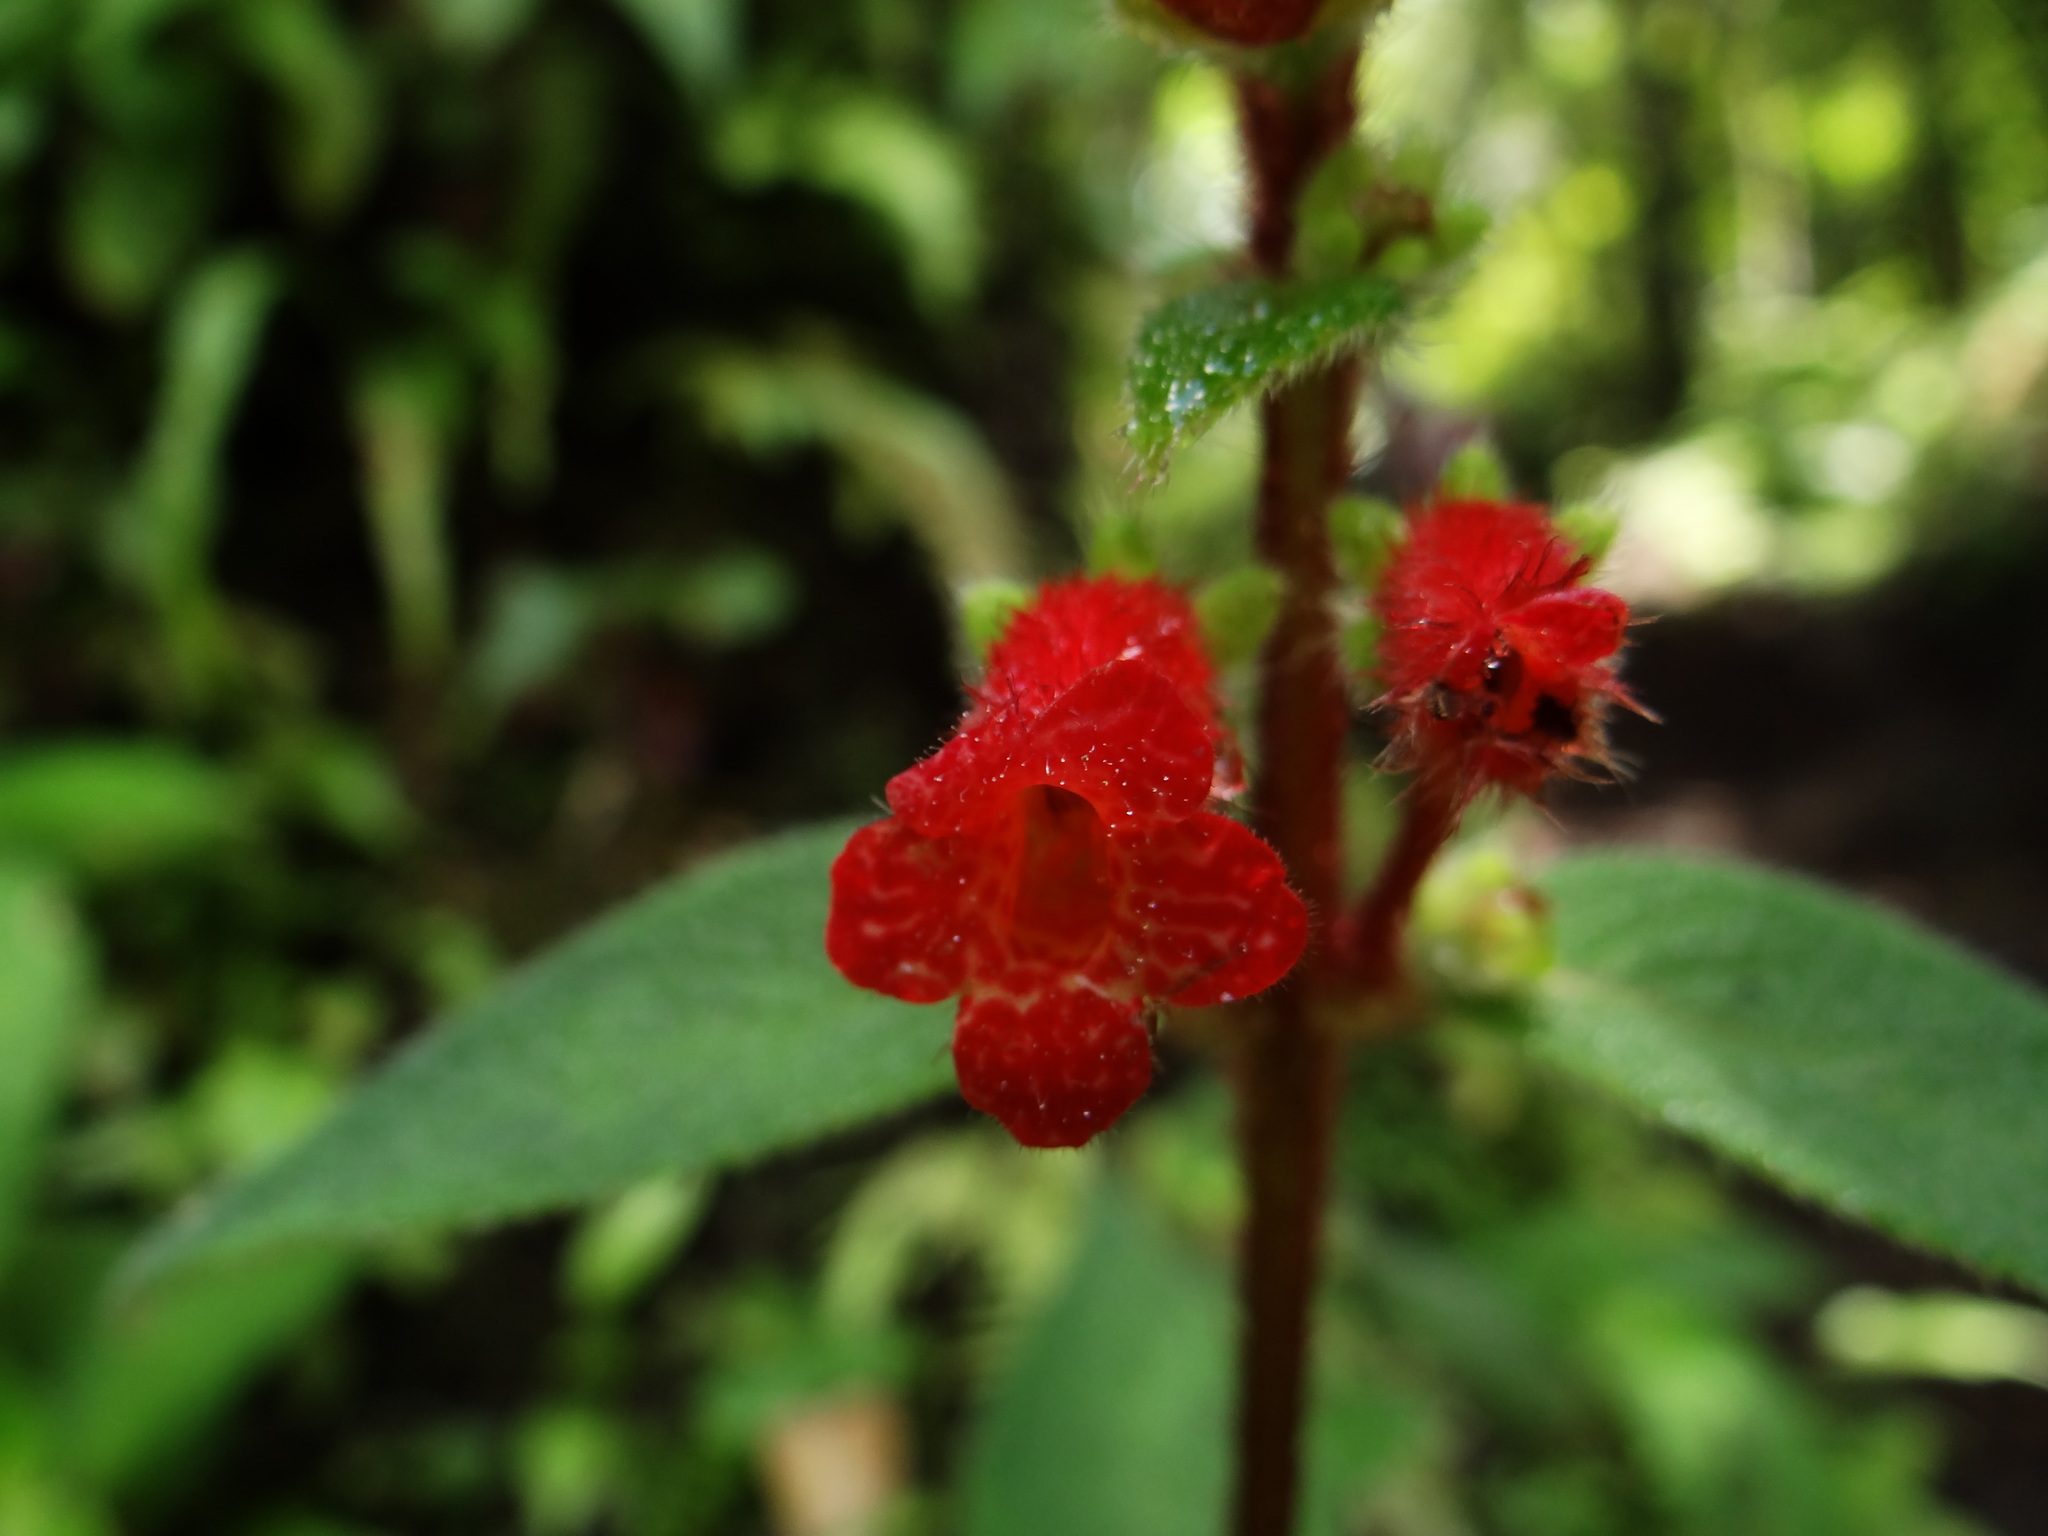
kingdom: Plantae
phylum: Tracheophyta
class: Magnoliopsida
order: Lamiales
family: Gesneriaceae
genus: Kohleria
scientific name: Kohleria spicata
